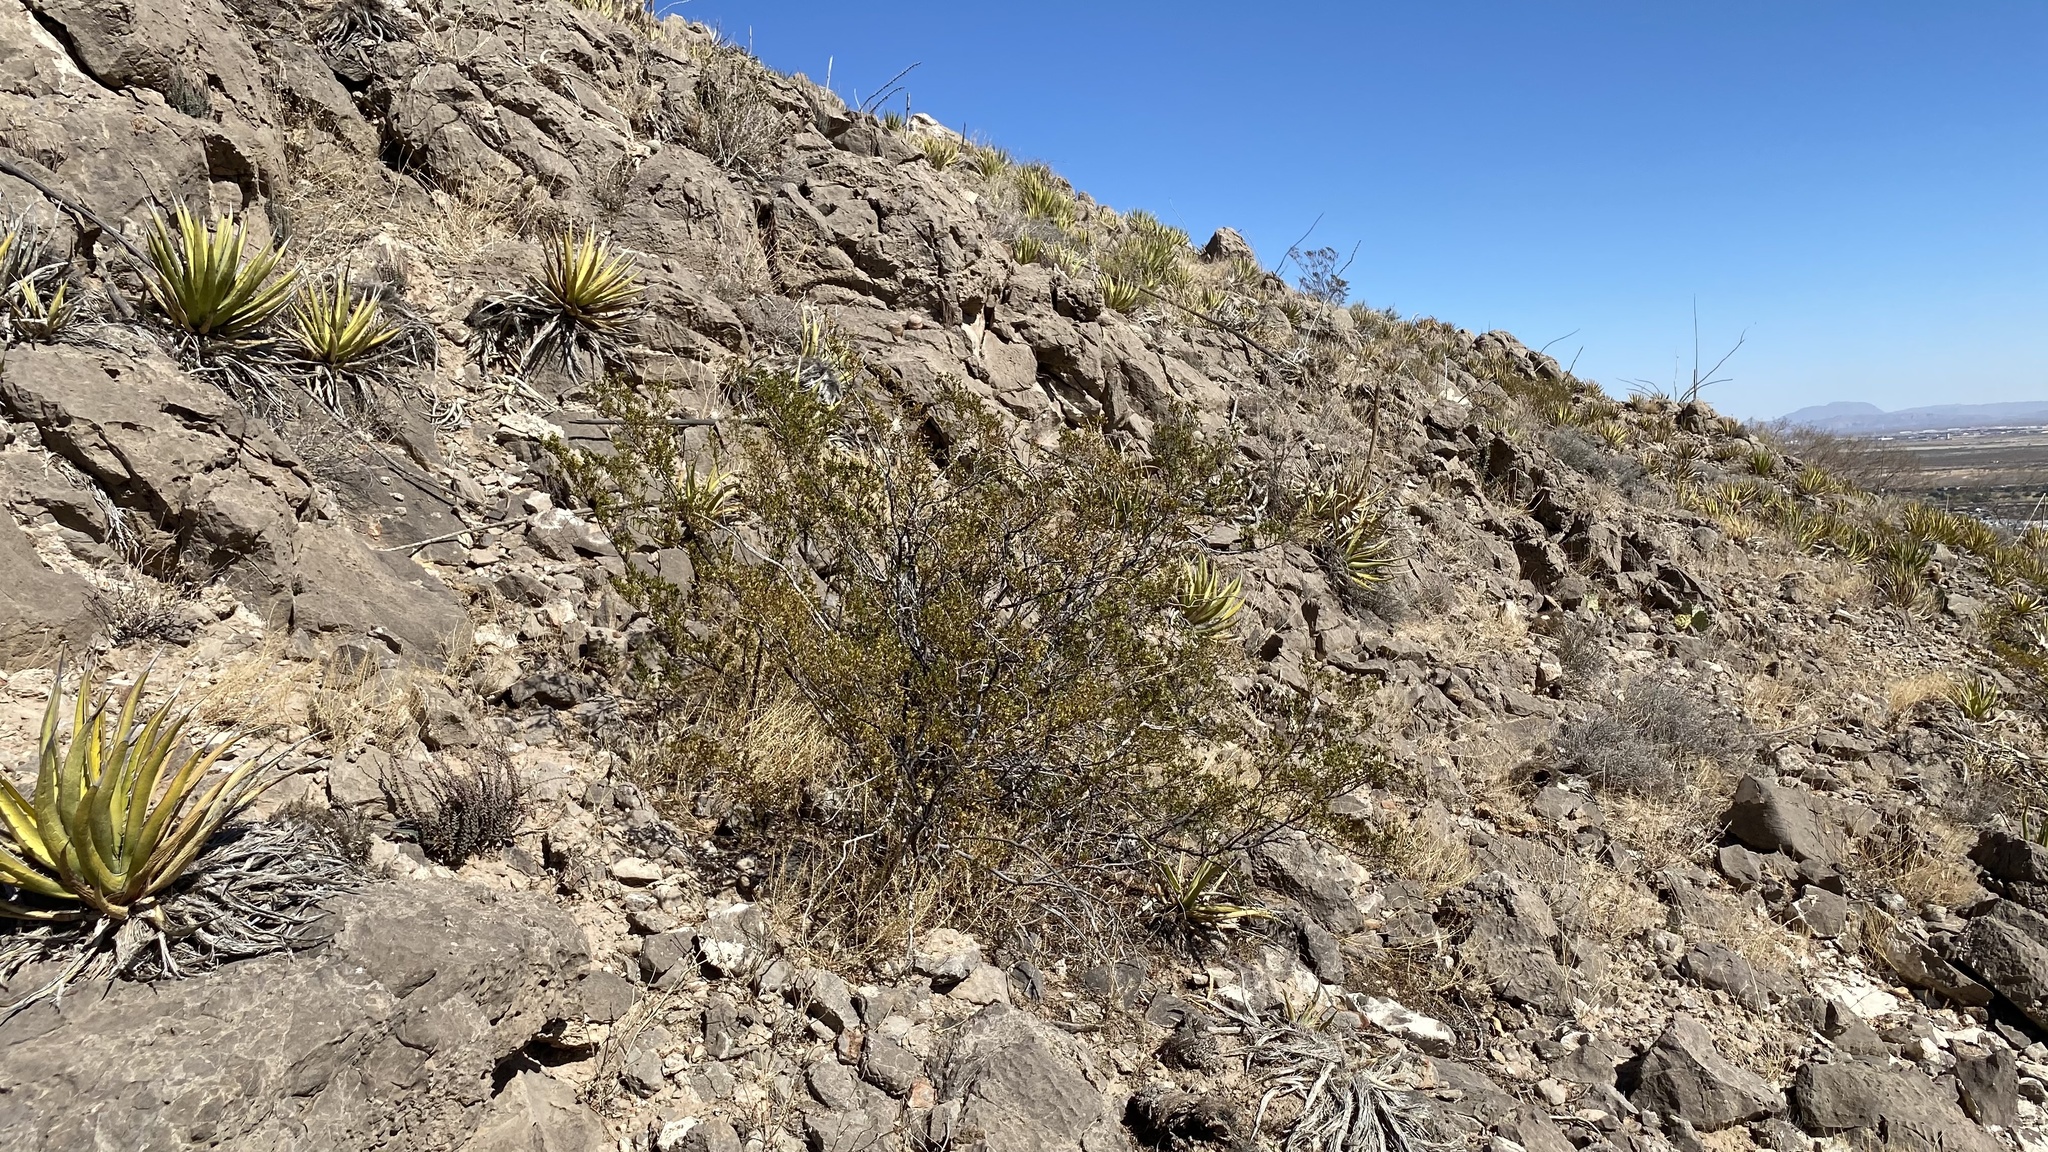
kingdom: Plantae
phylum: Tracheophyta
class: Magnoliopsida
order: Zygophyllales
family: Zygophyllaceae
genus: Larrea
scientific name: Larrea tridentata
